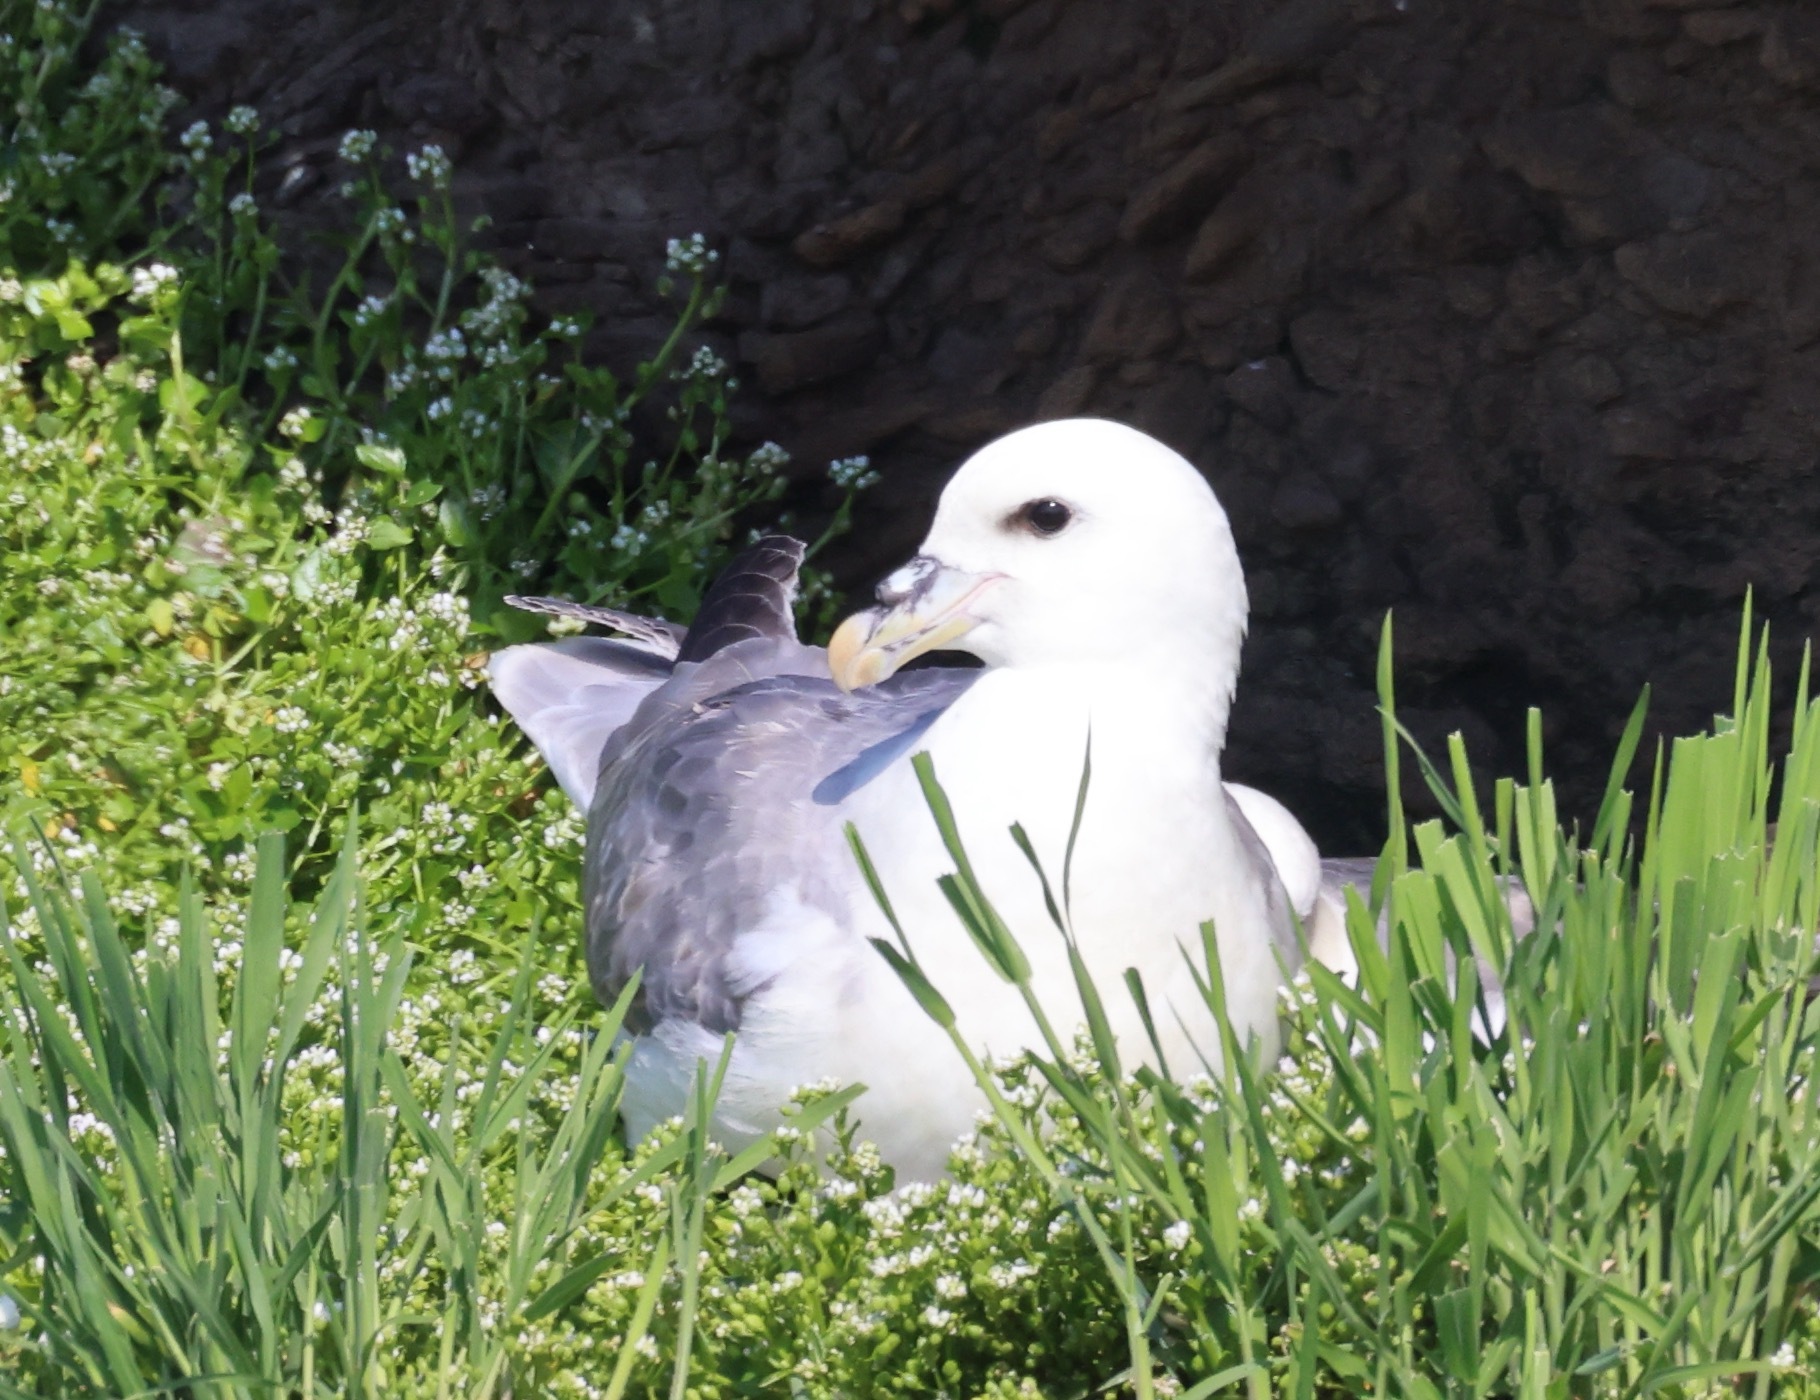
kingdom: Animalia
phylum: Chordata
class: Aves
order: Procellariiformes
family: Procellariidae
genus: Fulmarus
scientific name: Fulmarus glacialis
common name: Northern fulmar
